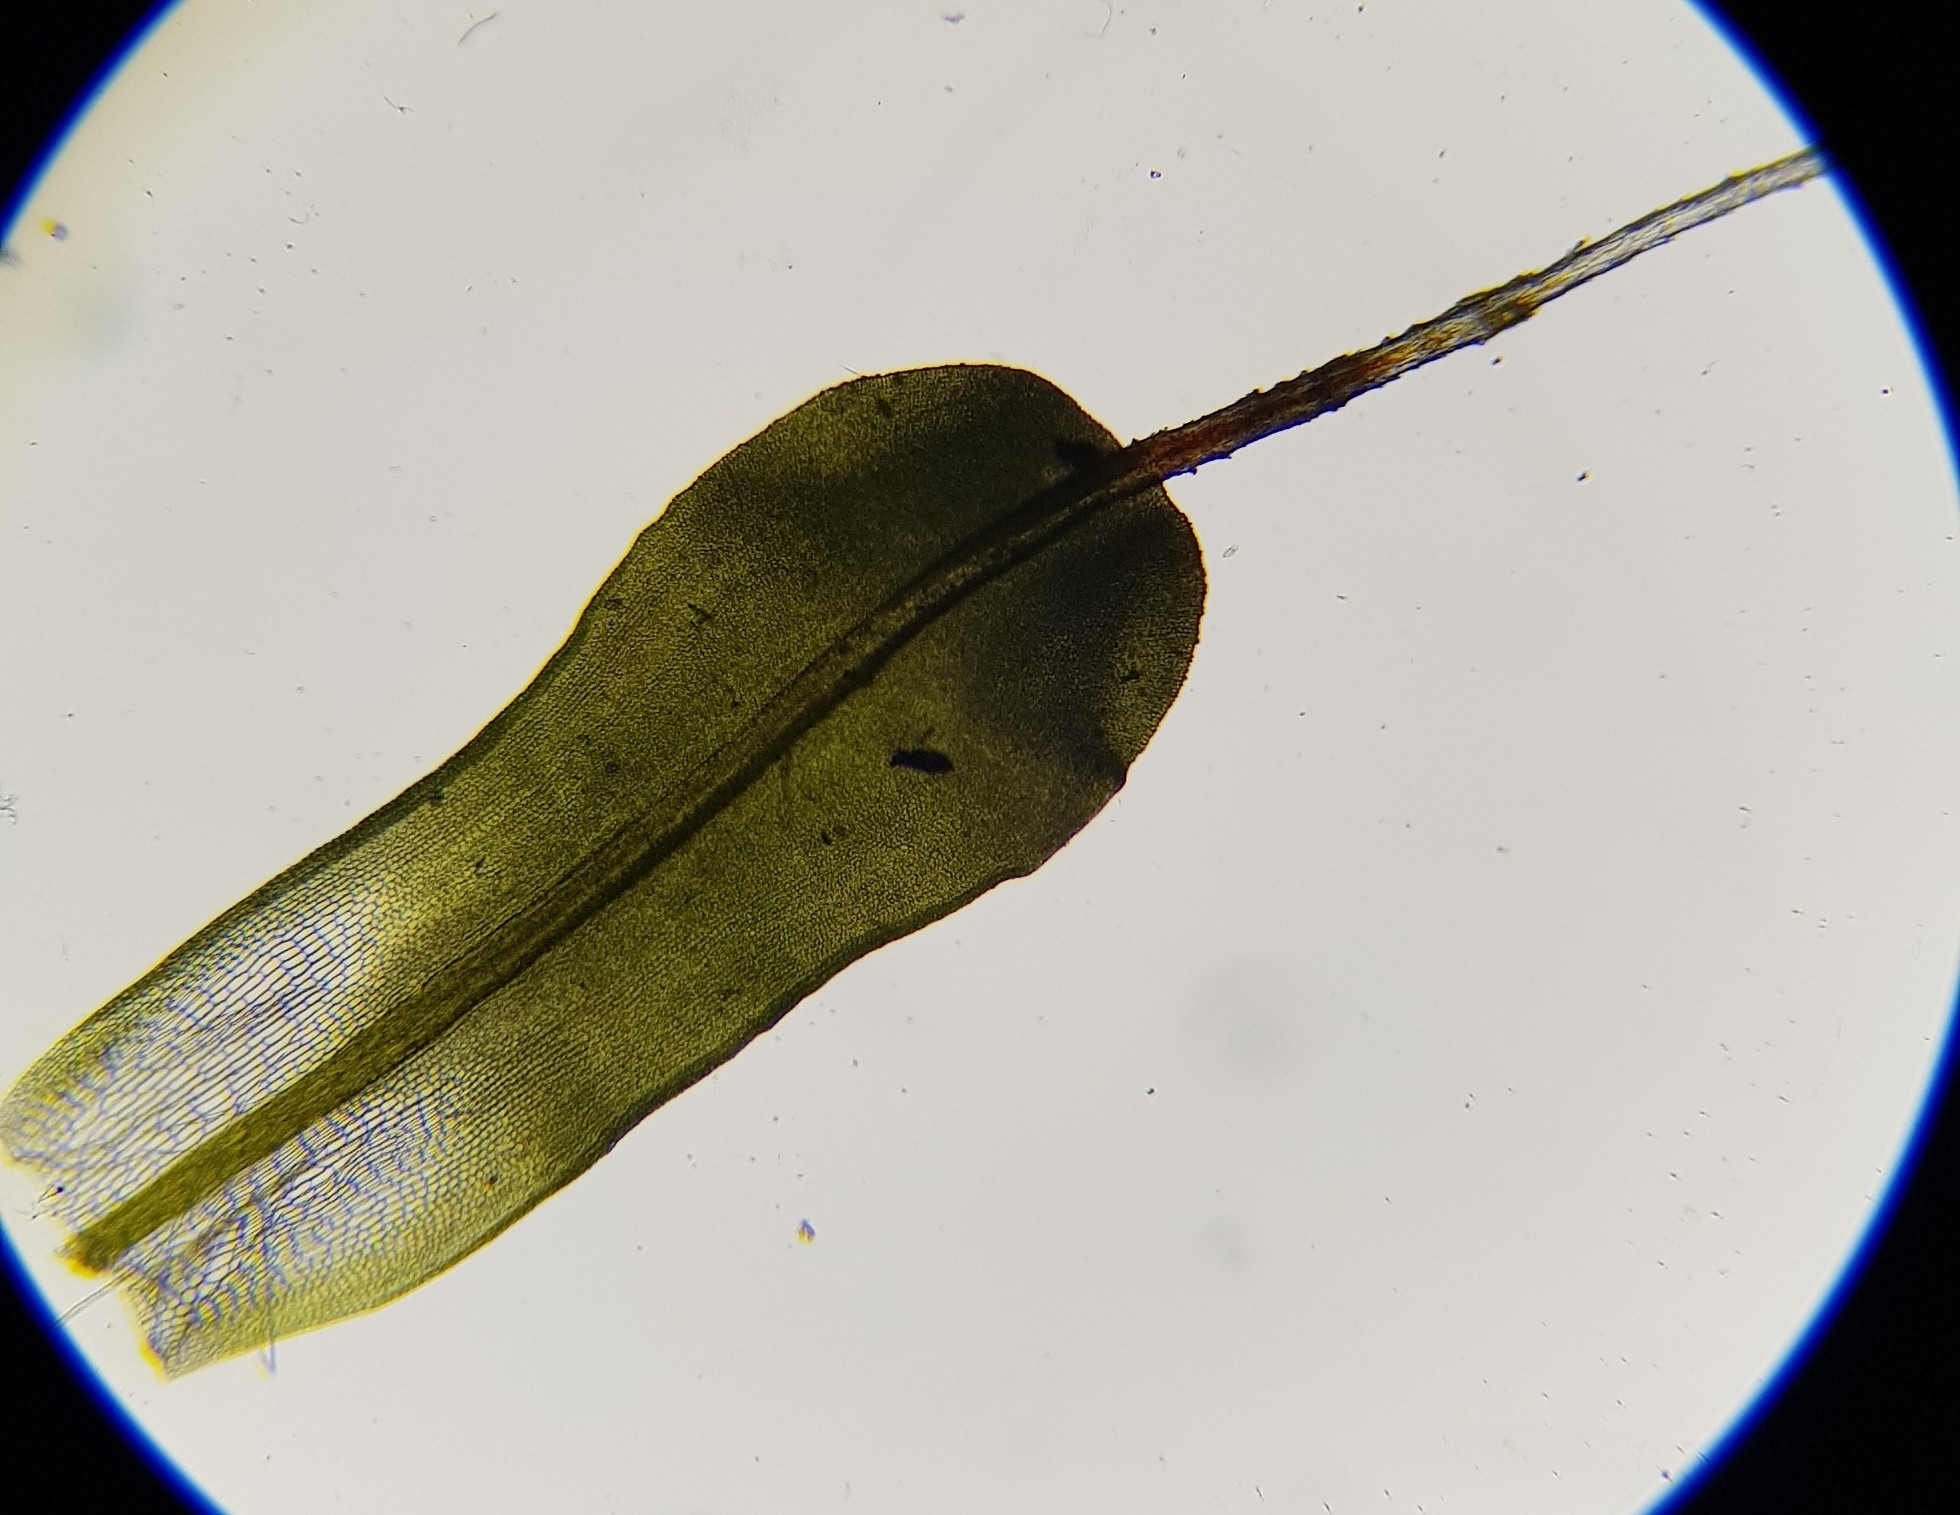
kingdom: Plantae
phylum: Bryophyta
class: Bryopsida
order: Pottiales
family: Pottiaceae
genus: Syntrichia
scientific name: Syntrichia montana
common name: Intermediate screw-moss
